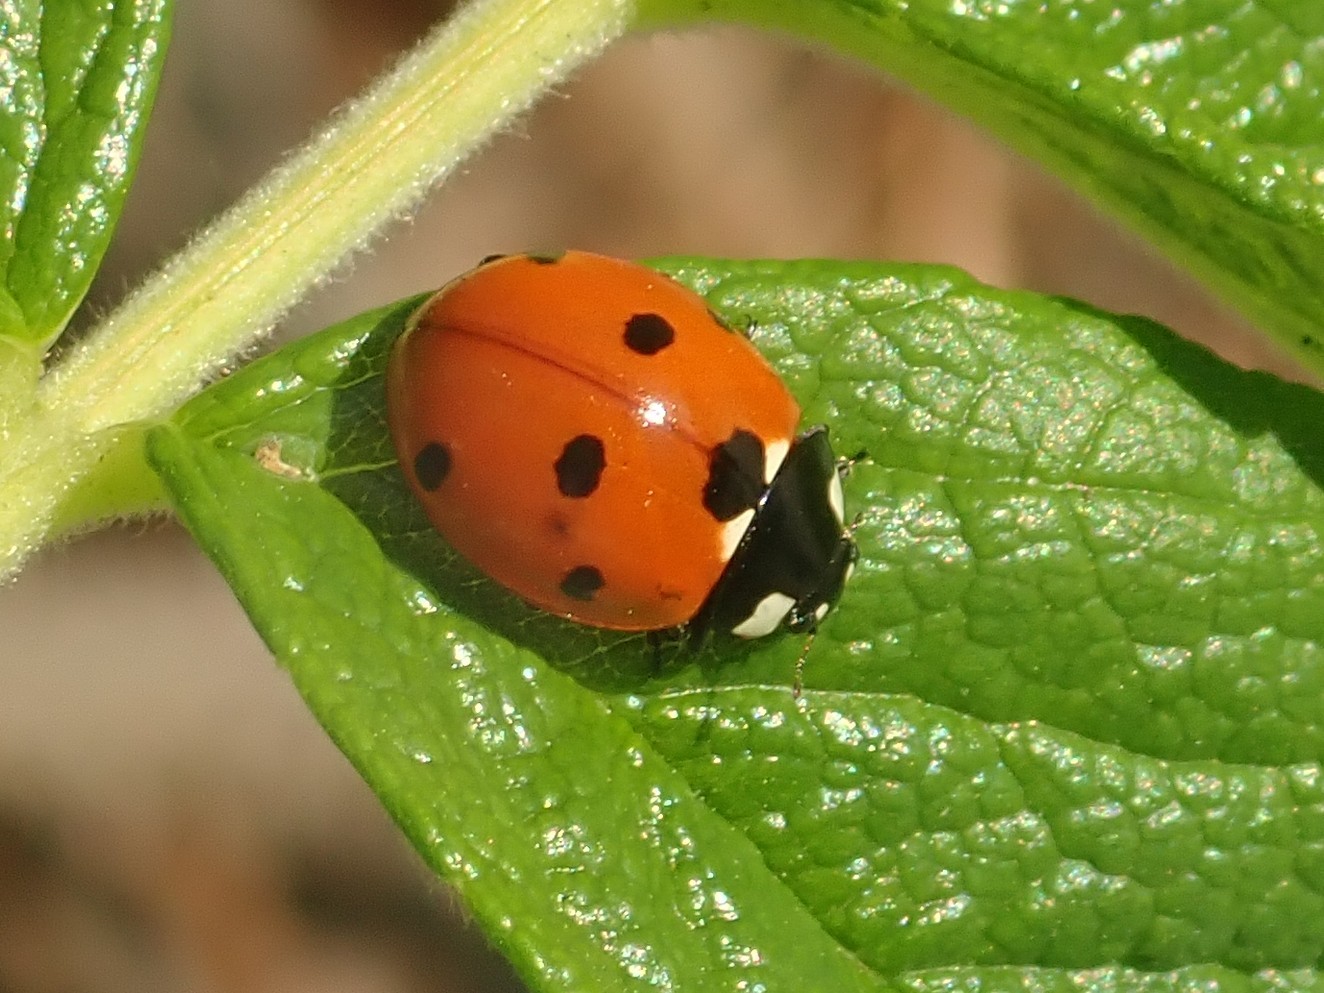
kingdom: Animalia
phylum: Arthropoda
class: Insecta
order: Coleoptera
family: Coccinellidae
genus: Coccinella
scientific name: Coccinella septempunctata
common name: Sevenspotted lady beetle
